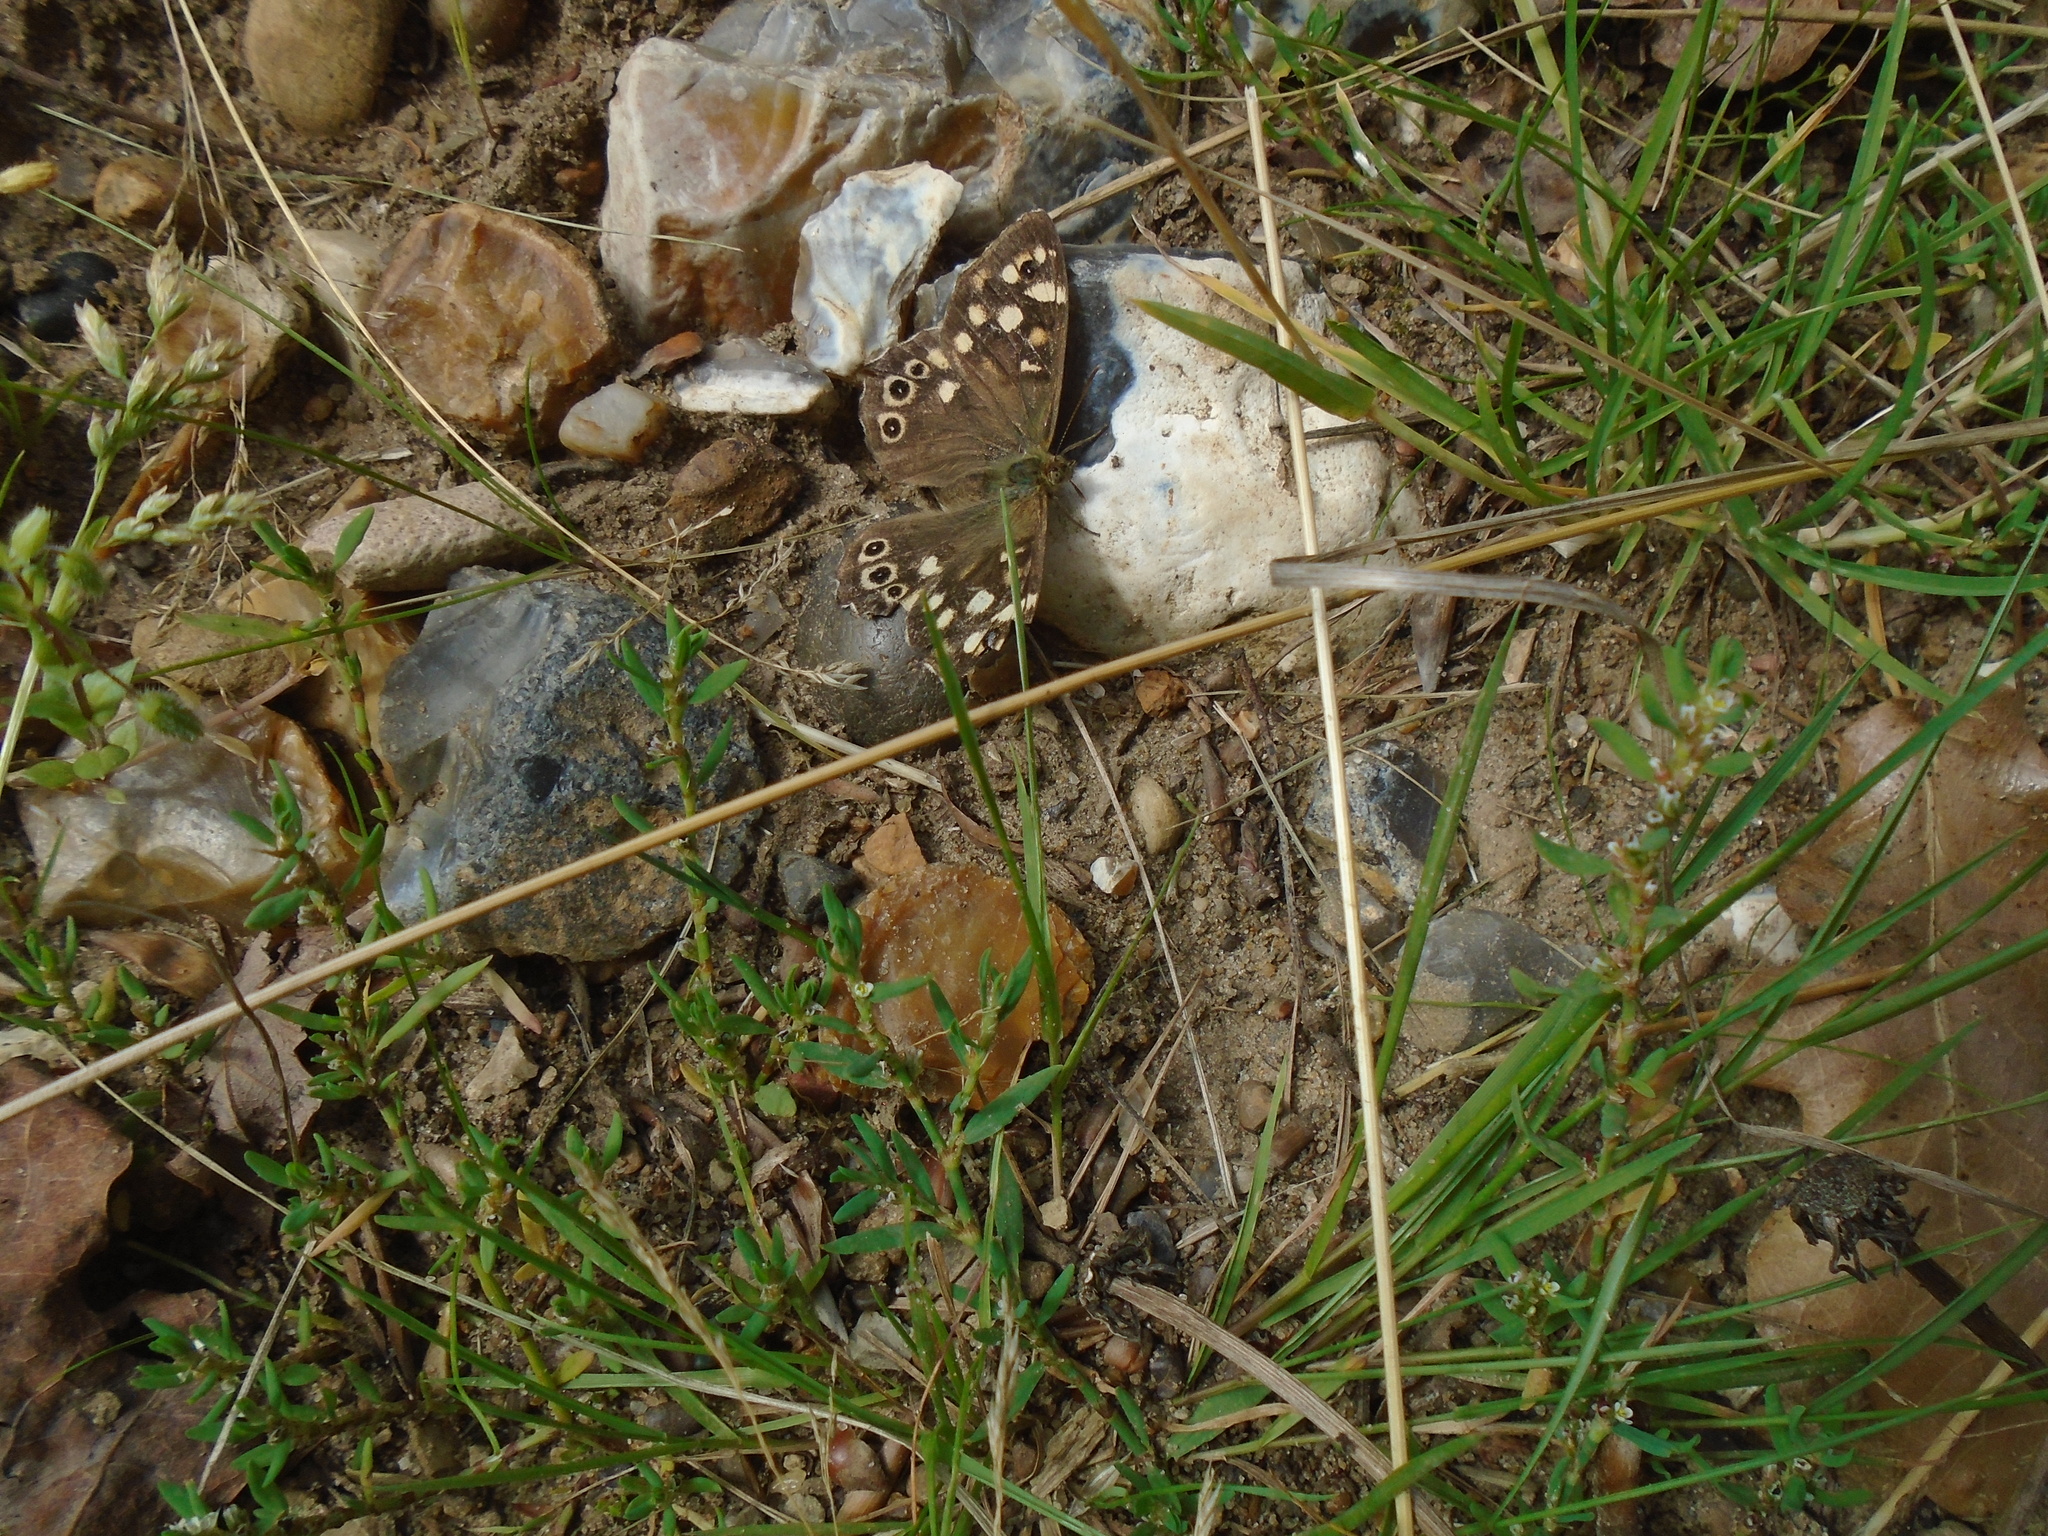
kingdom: Animalia
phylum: Arthropoda
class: Insecta
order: Lepidoptera
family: Nymphalidae
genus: Pararge
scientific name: Pararge aegeria
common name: Speckled wood
